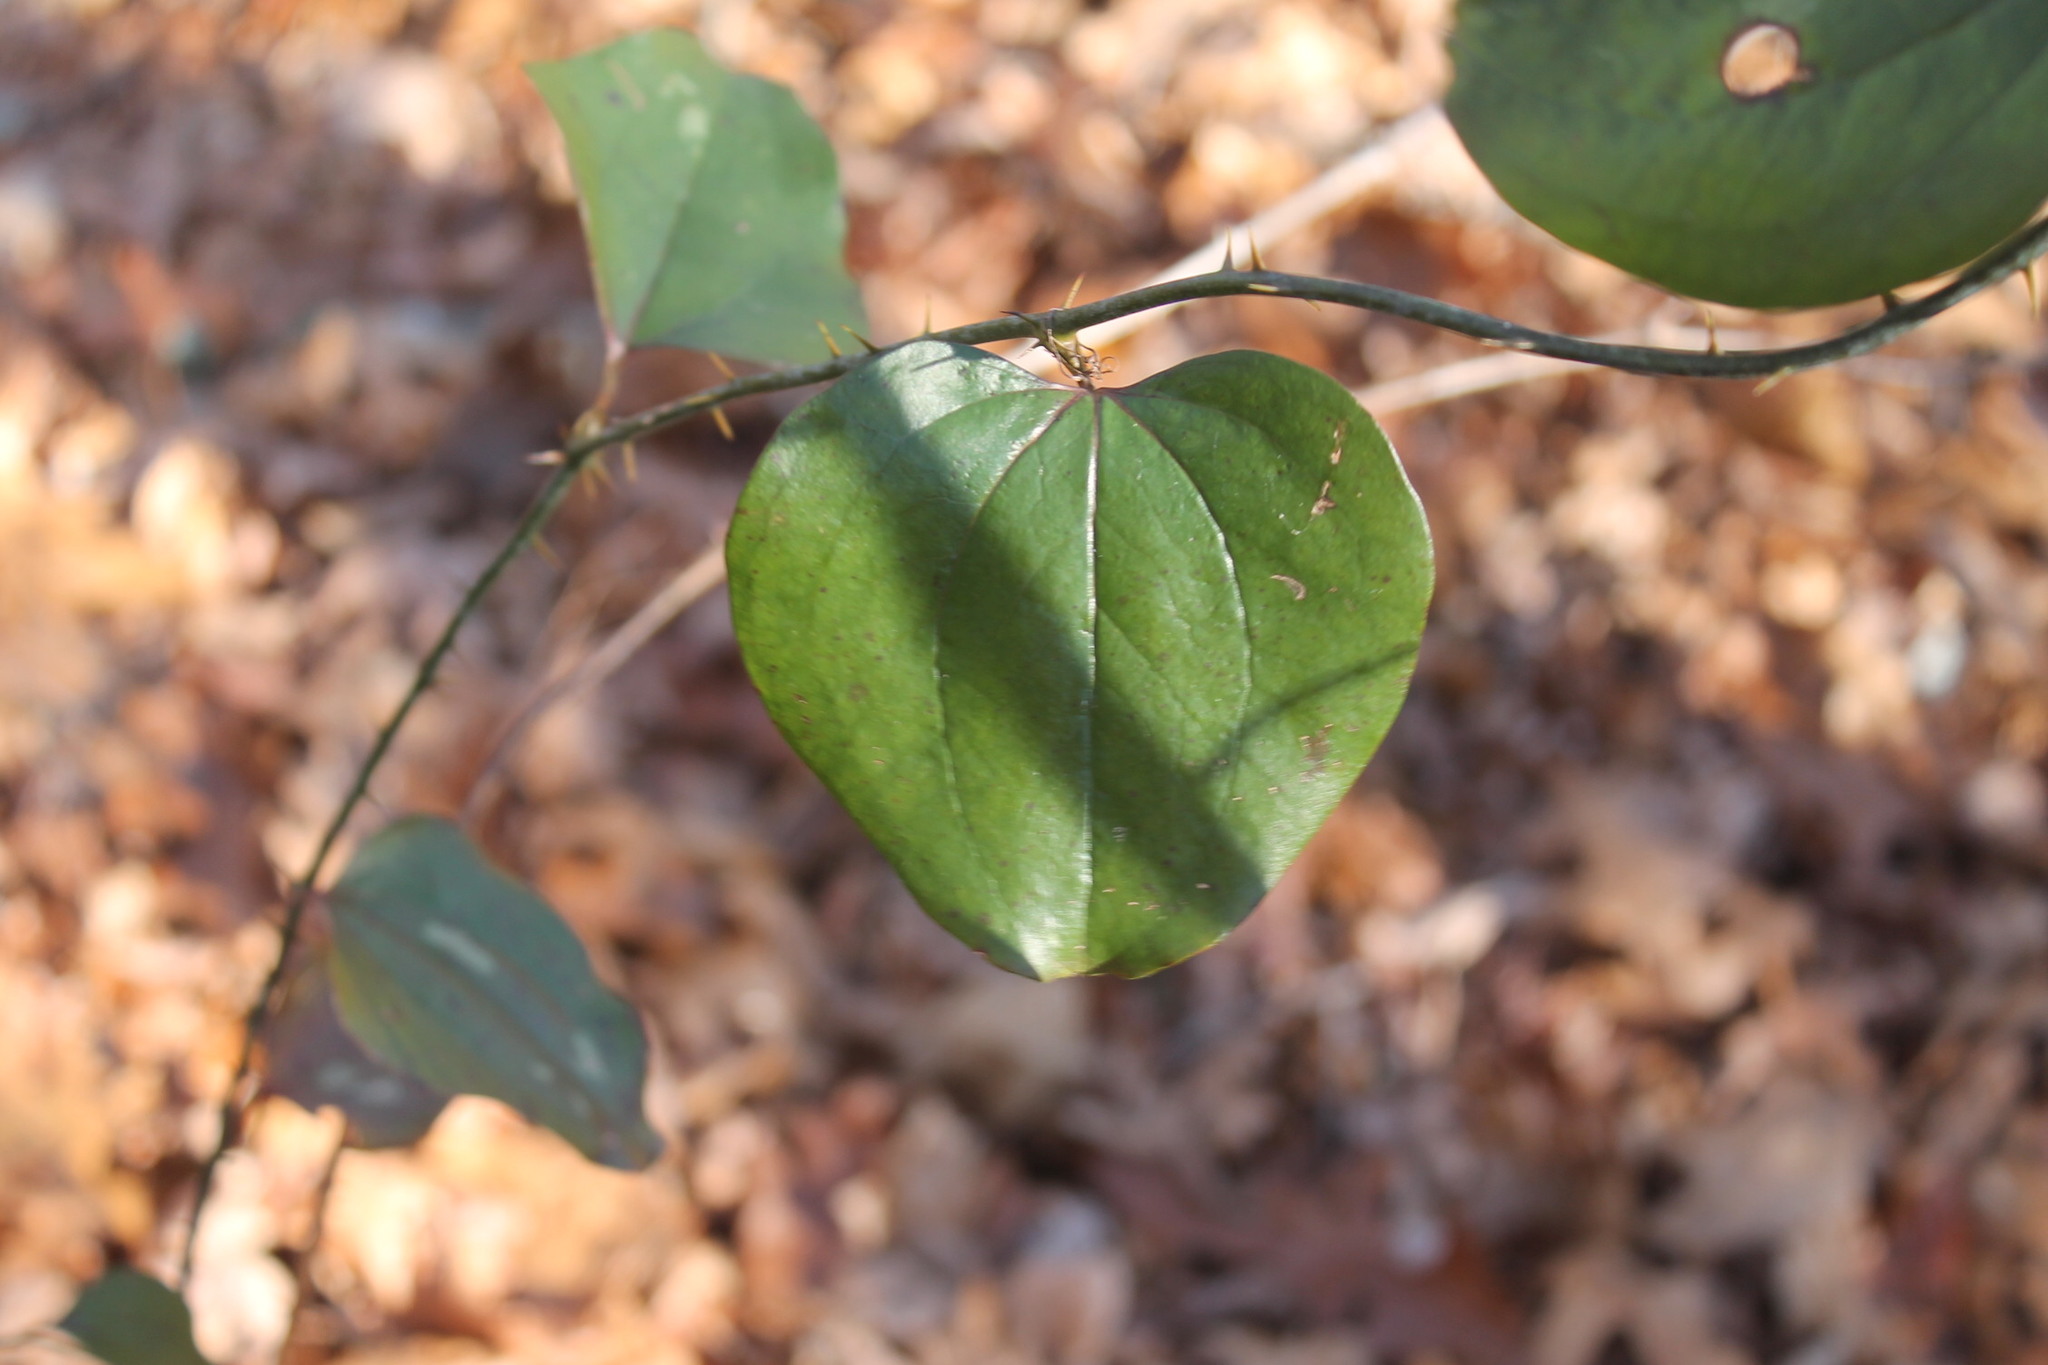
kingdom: Plantae
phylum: Tracheophyta
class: Liliopsida
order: Liliales
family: Smilacaceae
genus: Smilax
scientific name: Smilax rotundifolia
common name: Bullbriar
